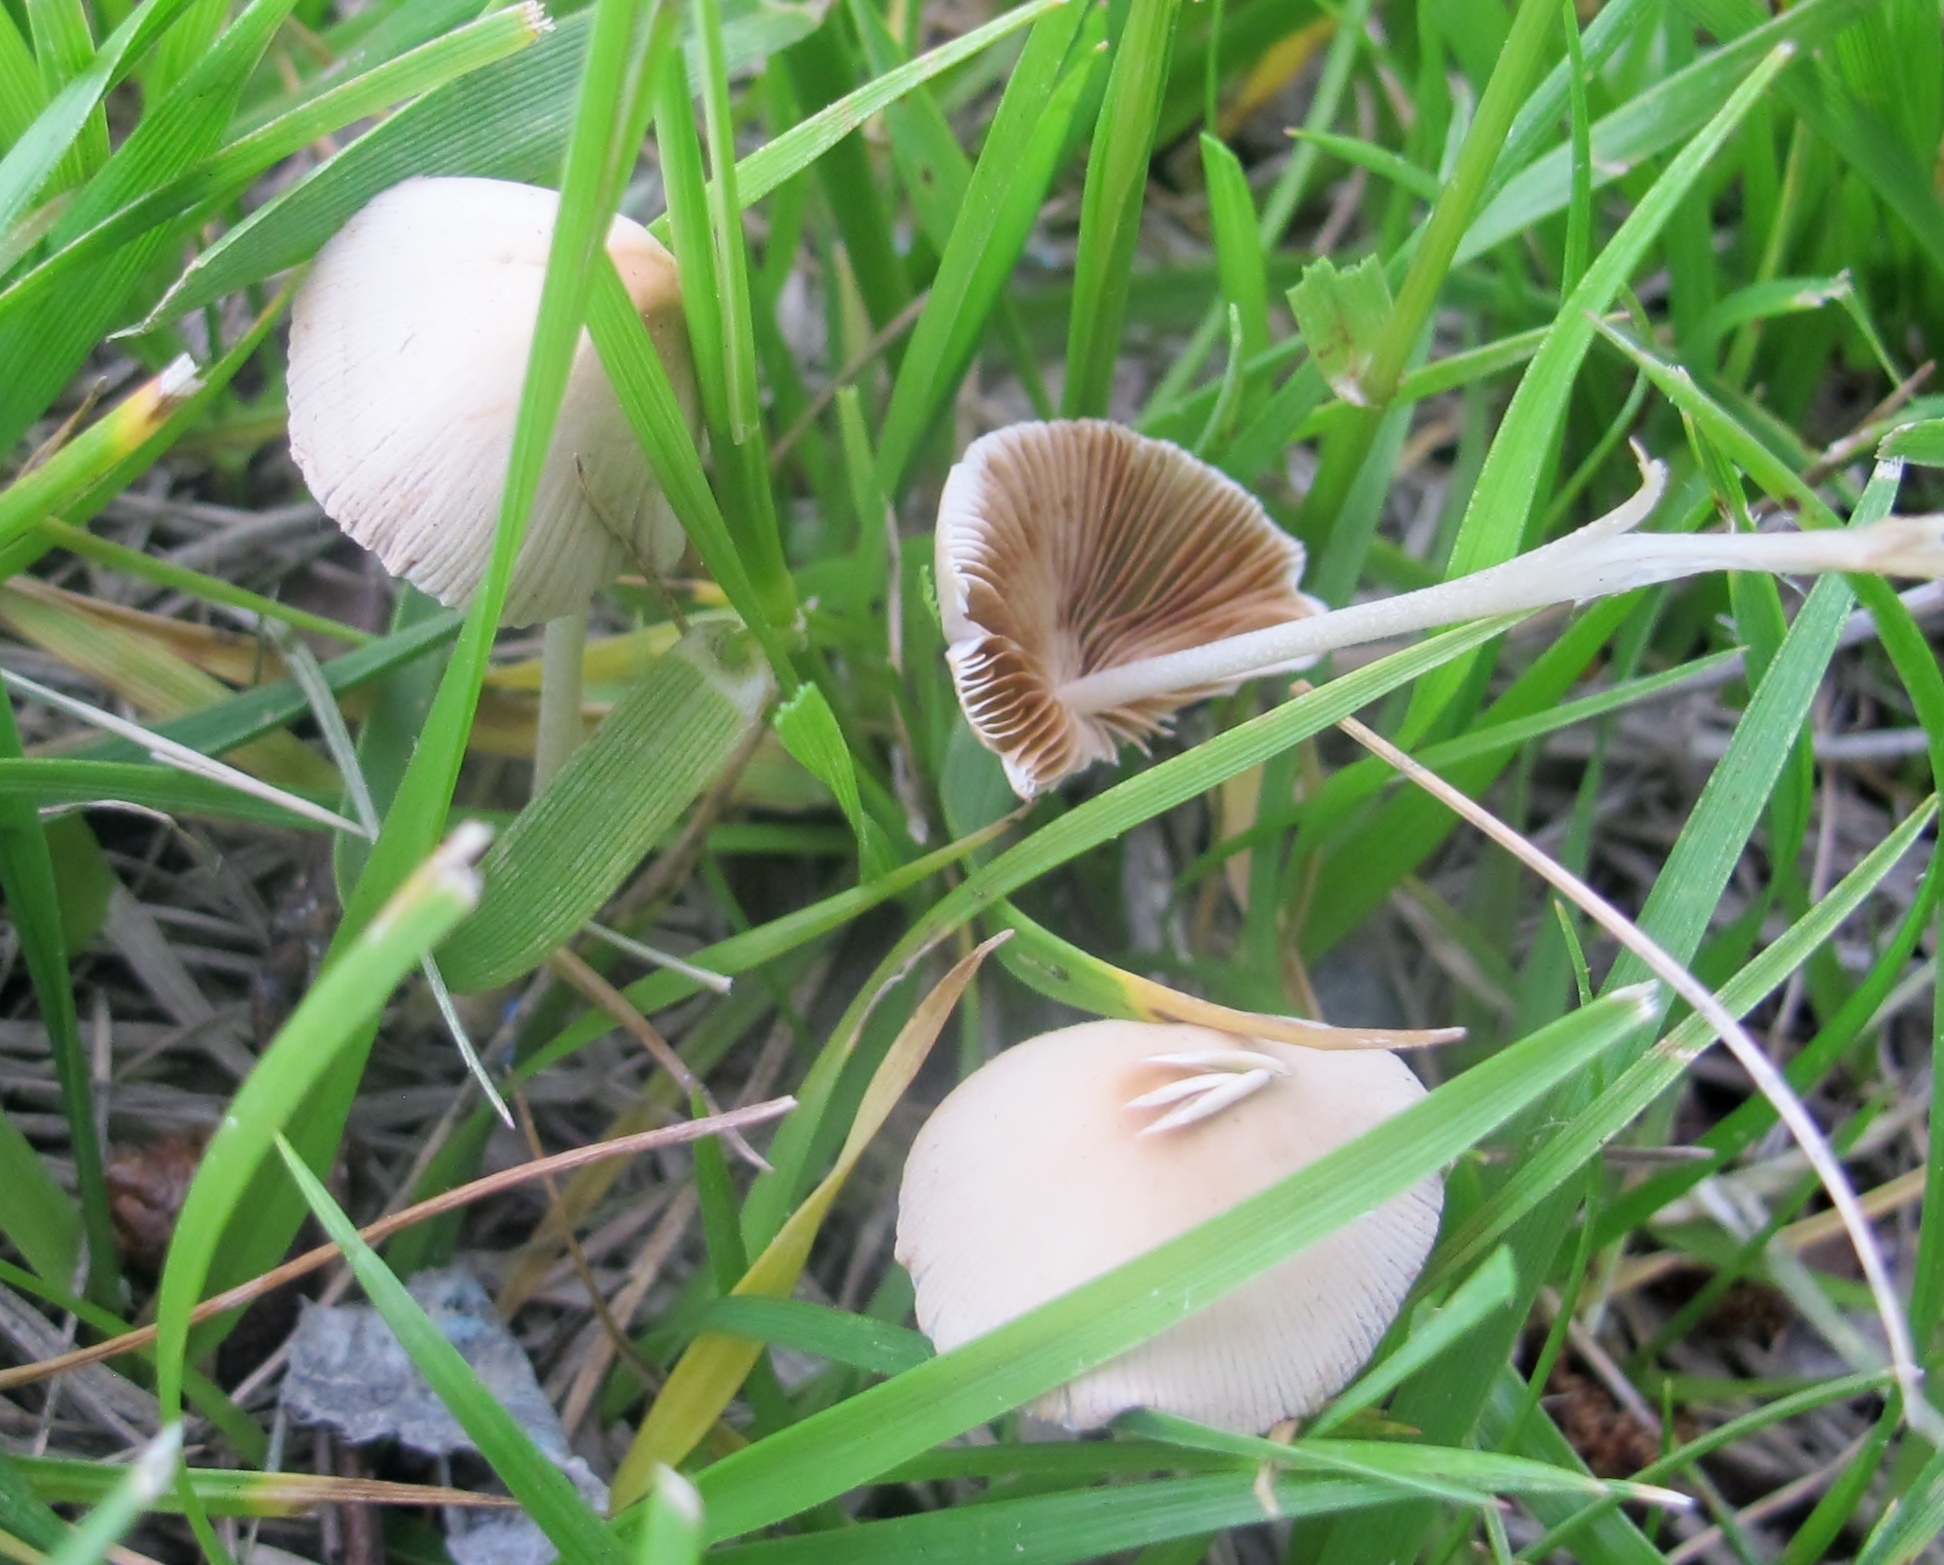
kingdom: Fungi
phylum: Basidiomycota
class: Agaricomycetes
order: Agaricales
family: Bolbitiaceae
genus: Conocybe
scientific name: Conocybe apala
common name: Milky conecap
